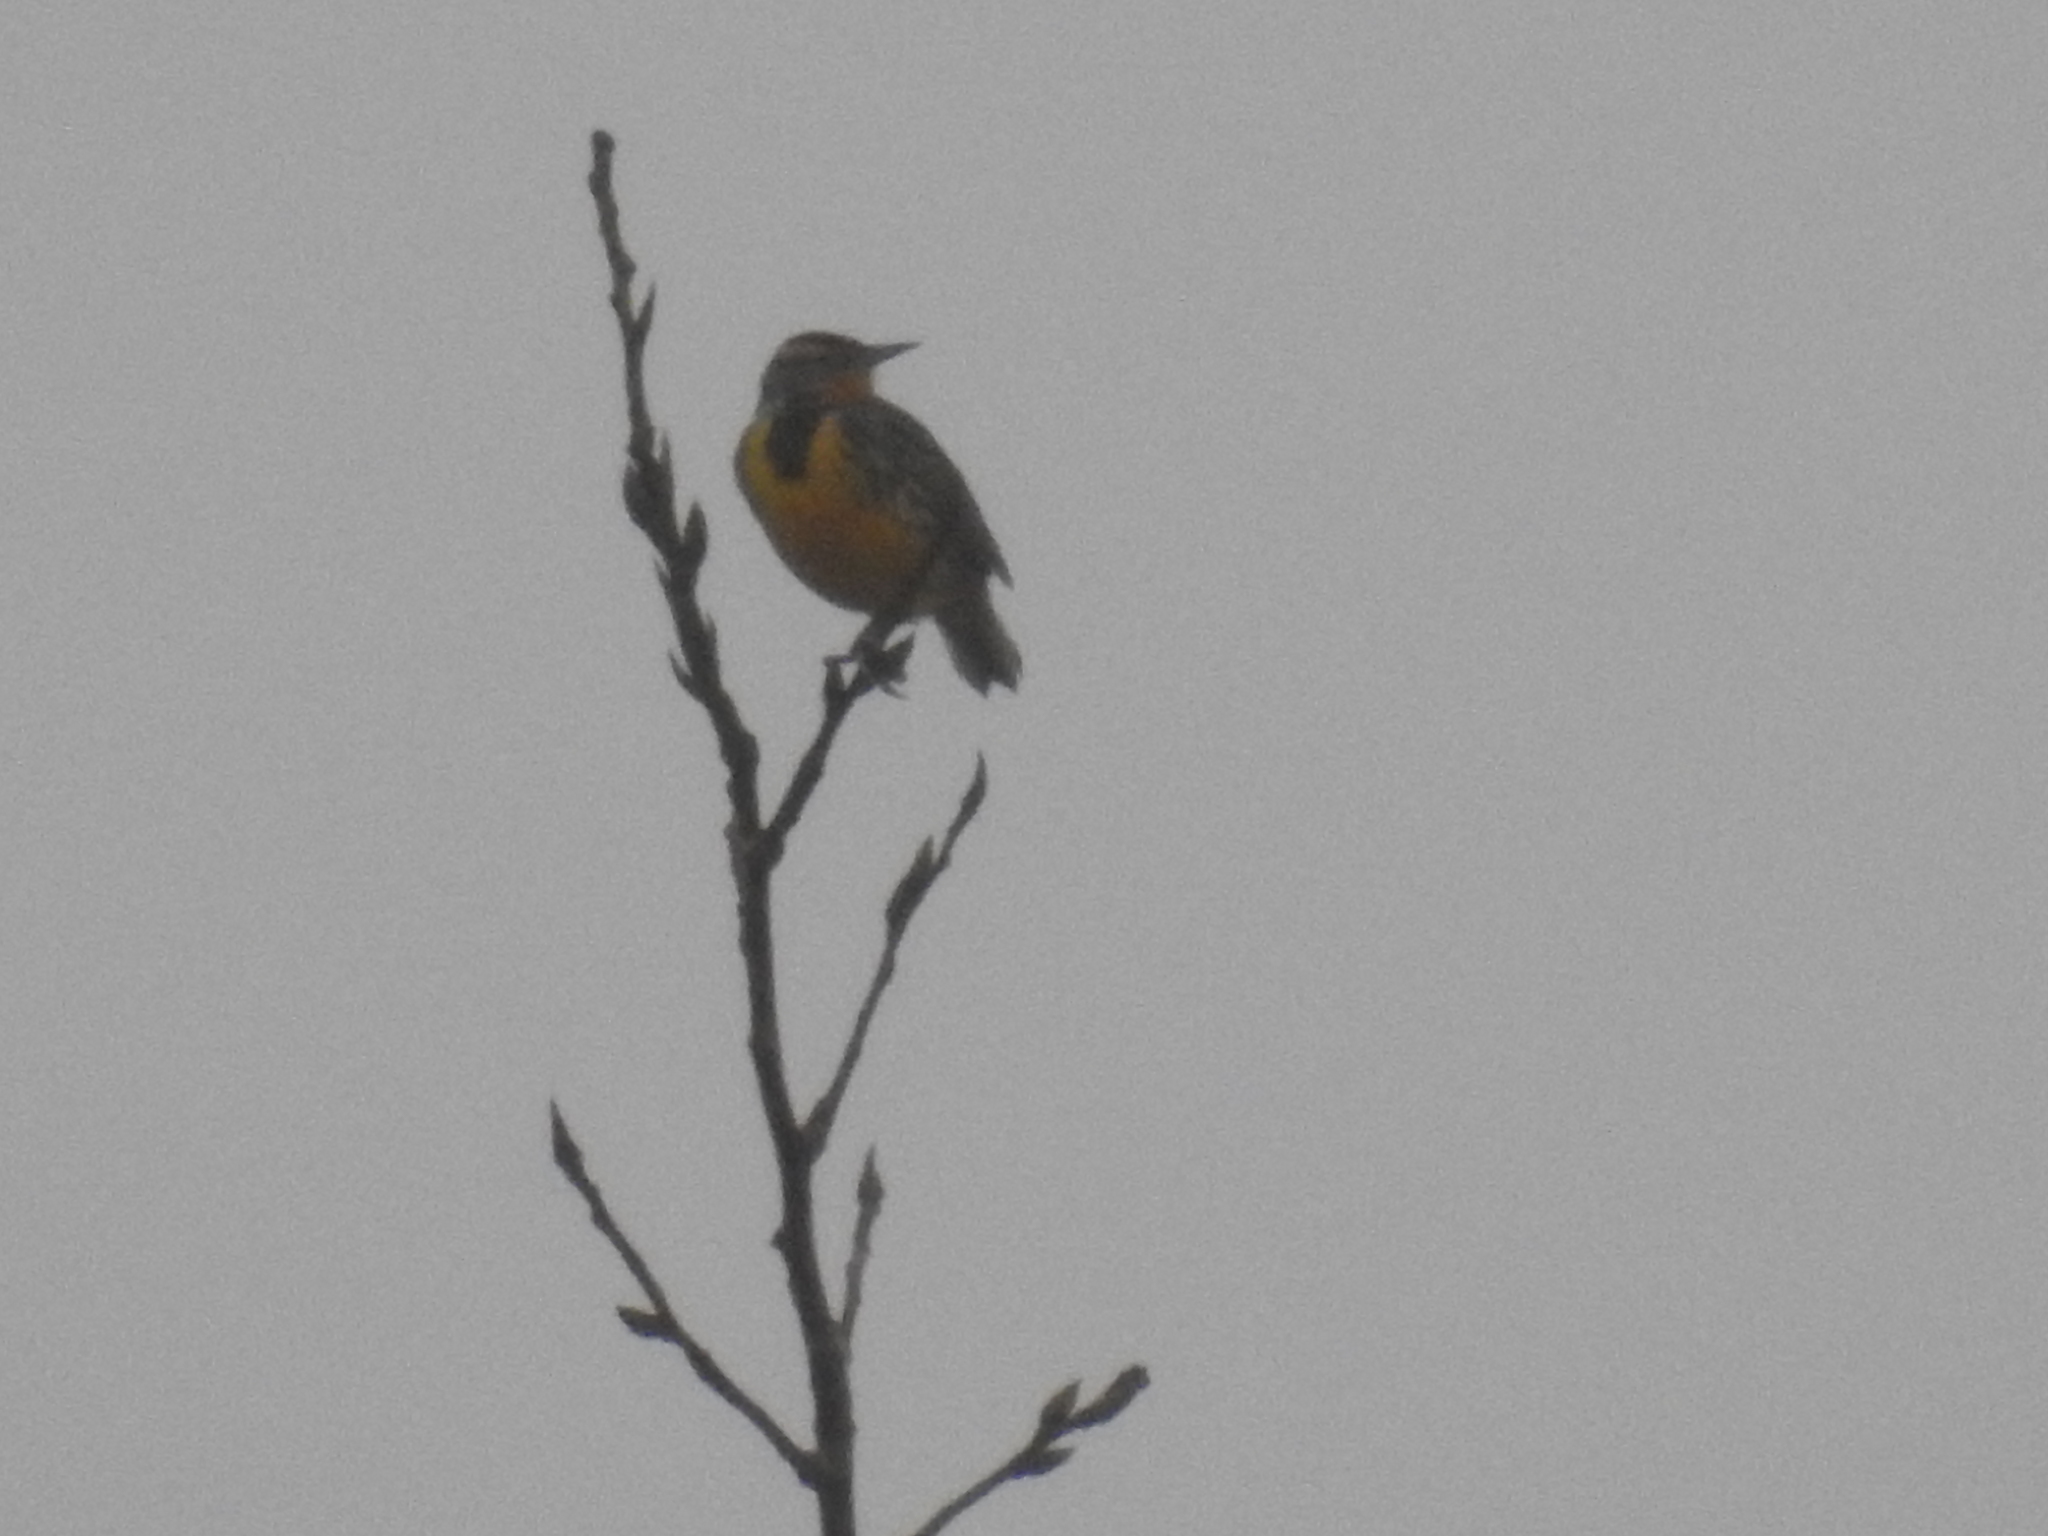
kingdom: Animalia
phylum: Chordata
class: Aves
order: Passeriformes
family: Icteridae
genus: Sturnella
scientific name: Sturnella magna
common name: Eastern meadowlark
